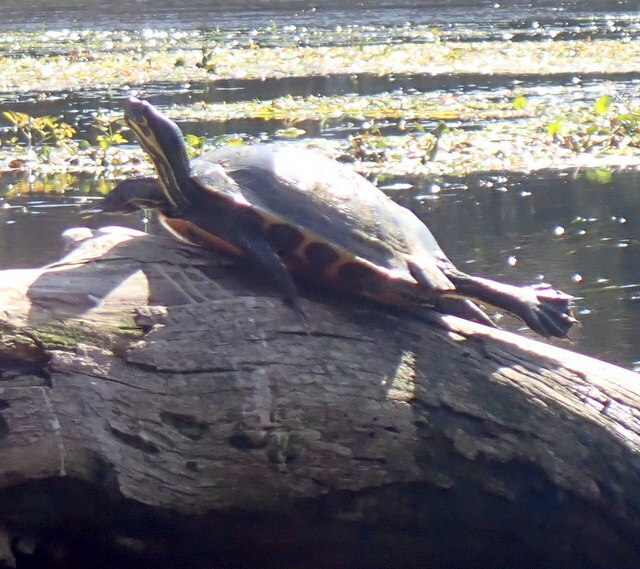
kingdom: Animalia
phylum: Chordata
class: Testudines
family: Emydidae
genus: Pseudemys
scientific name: Pseudemys concinna
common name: Eastern river cooter
